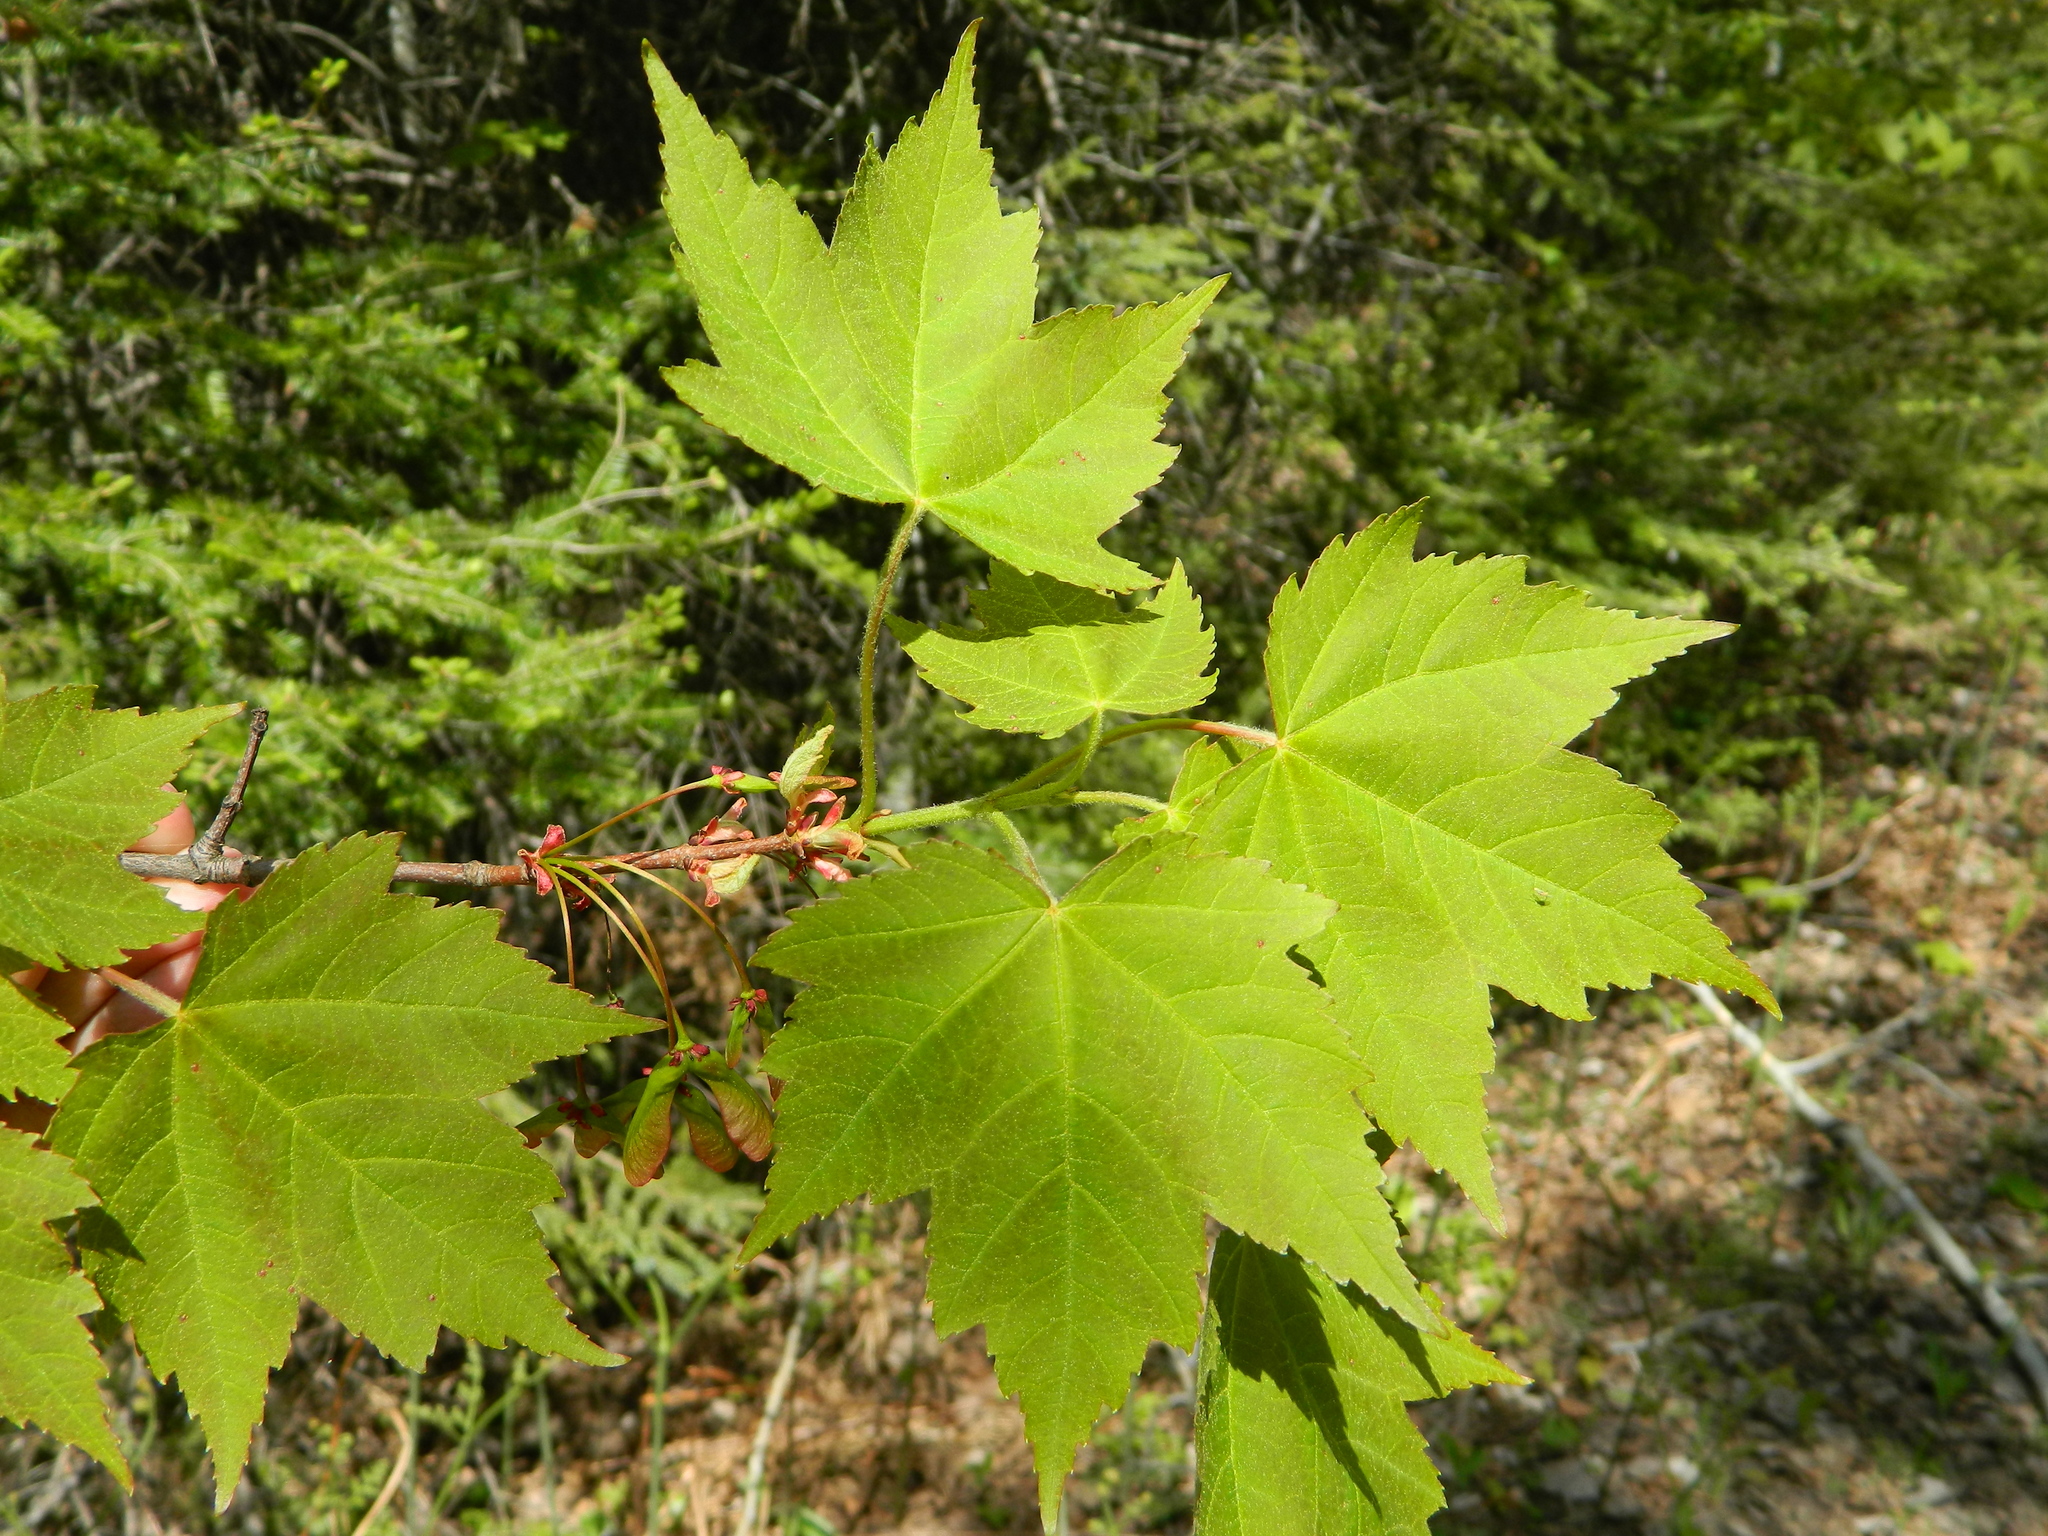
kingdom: Plantae
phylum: Tracheophyta
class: Magnoliopsida
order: Sapindales
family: Sapindaceae
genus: Acer
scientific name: Acer rubrum
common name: Red maple
